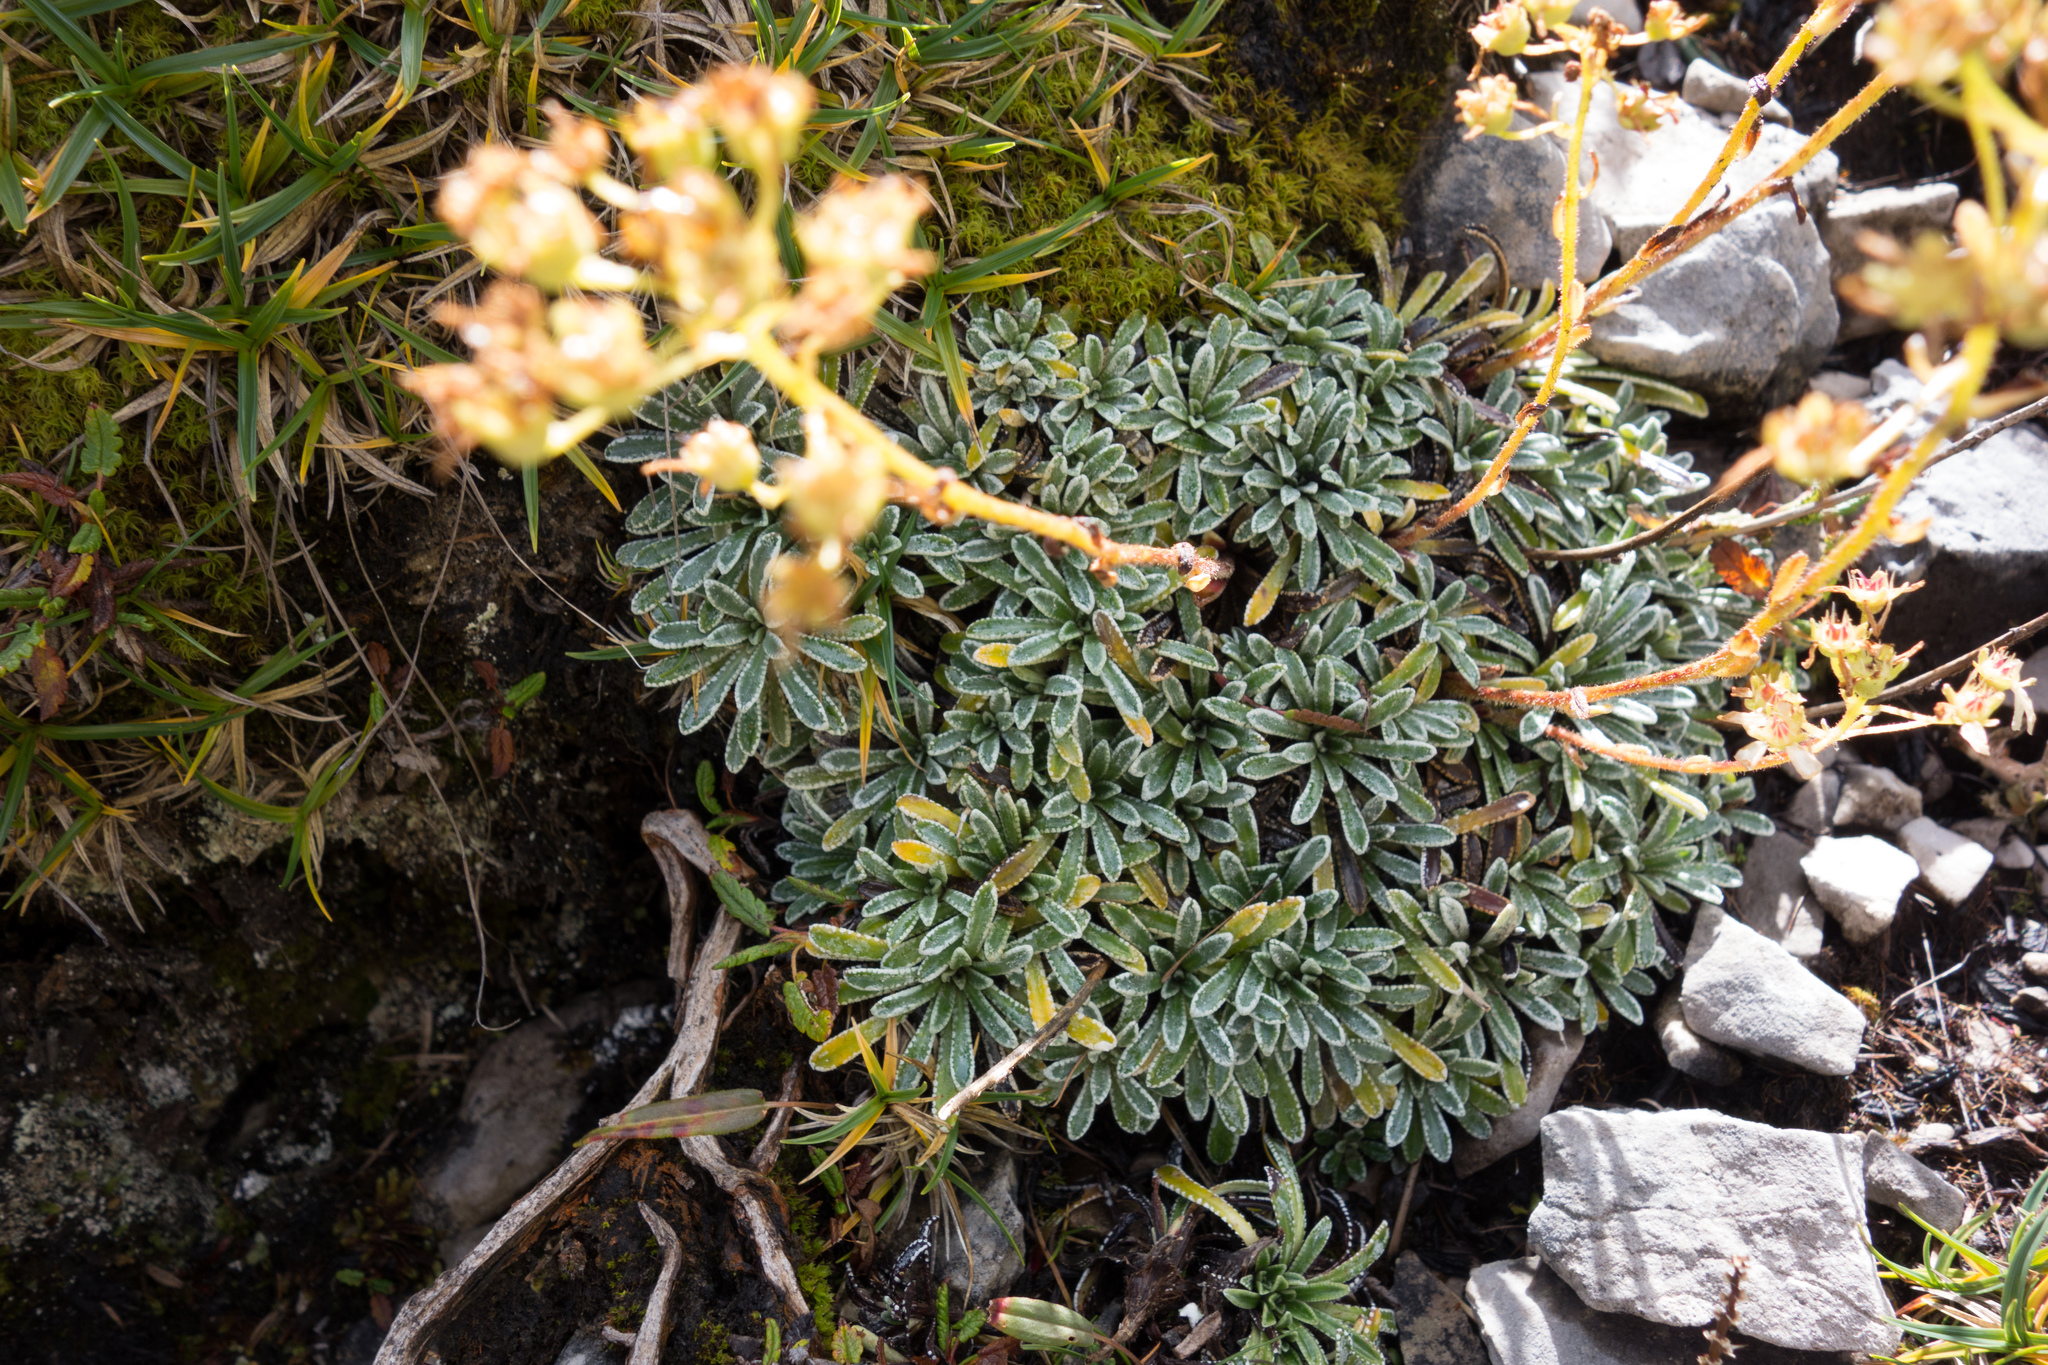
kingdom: Plantae
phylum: Tracheophyta
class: Magnoliopsida
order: Saxifragales
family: Saxifragaceae
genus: Saxifraga
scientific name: Saxifraga crustata
